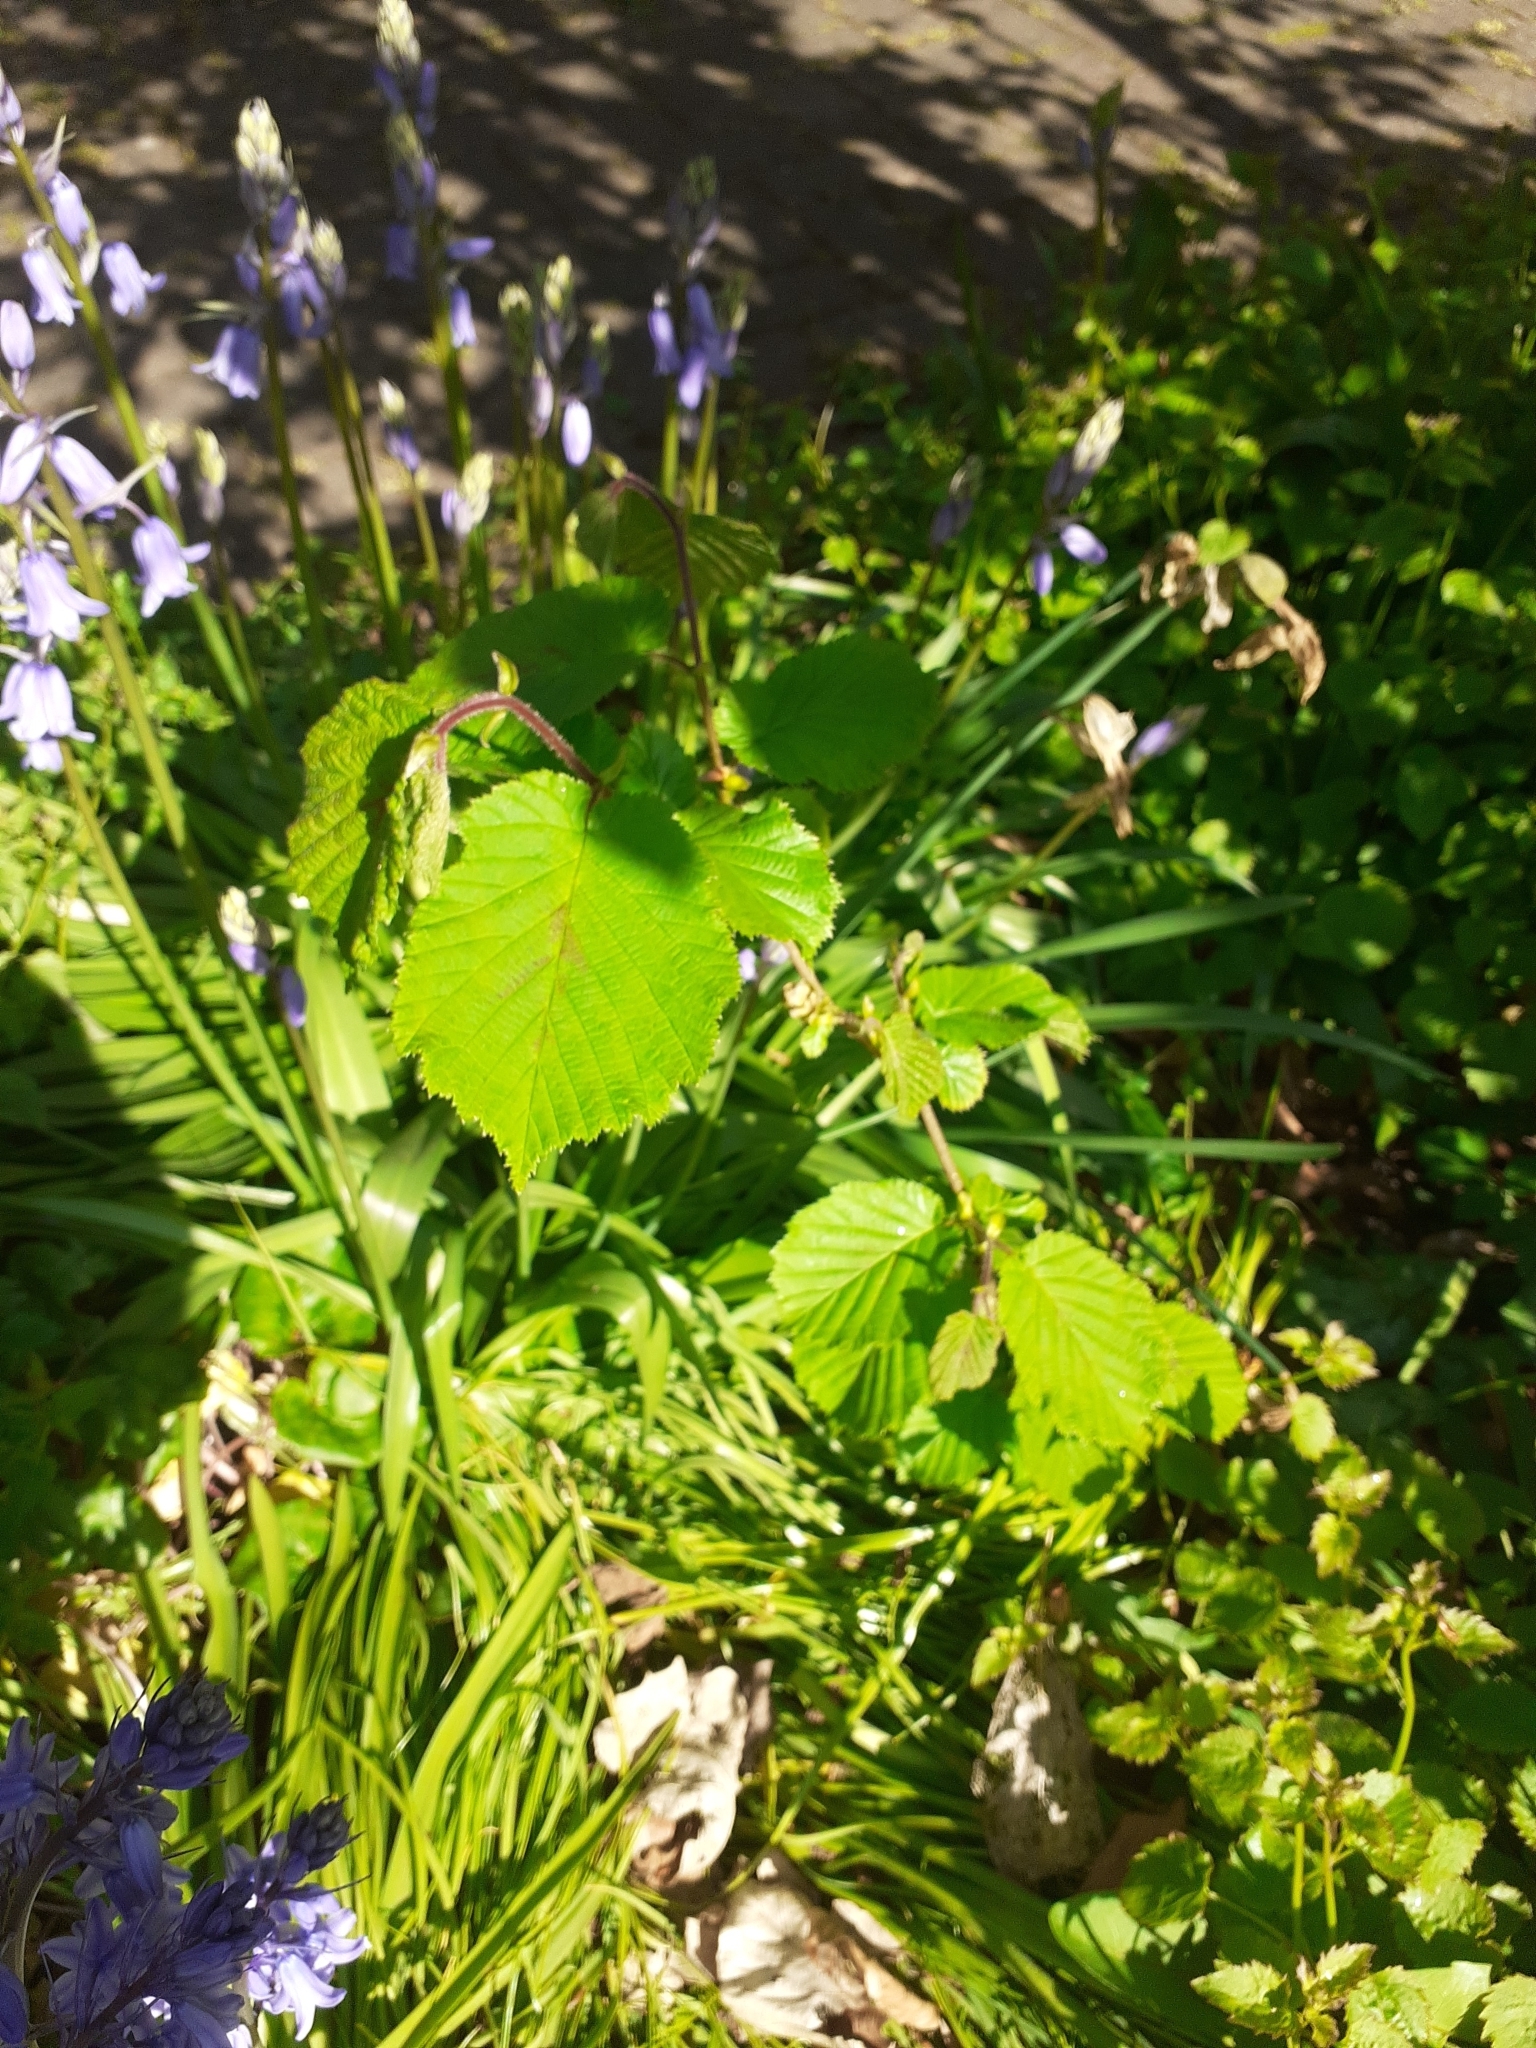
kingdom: Plantae
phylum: Tracheophyta
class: Magnoliopsida
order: Fagales
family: Betulaceae
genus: Corylus
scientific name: Corylus avellana
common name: European hazel
